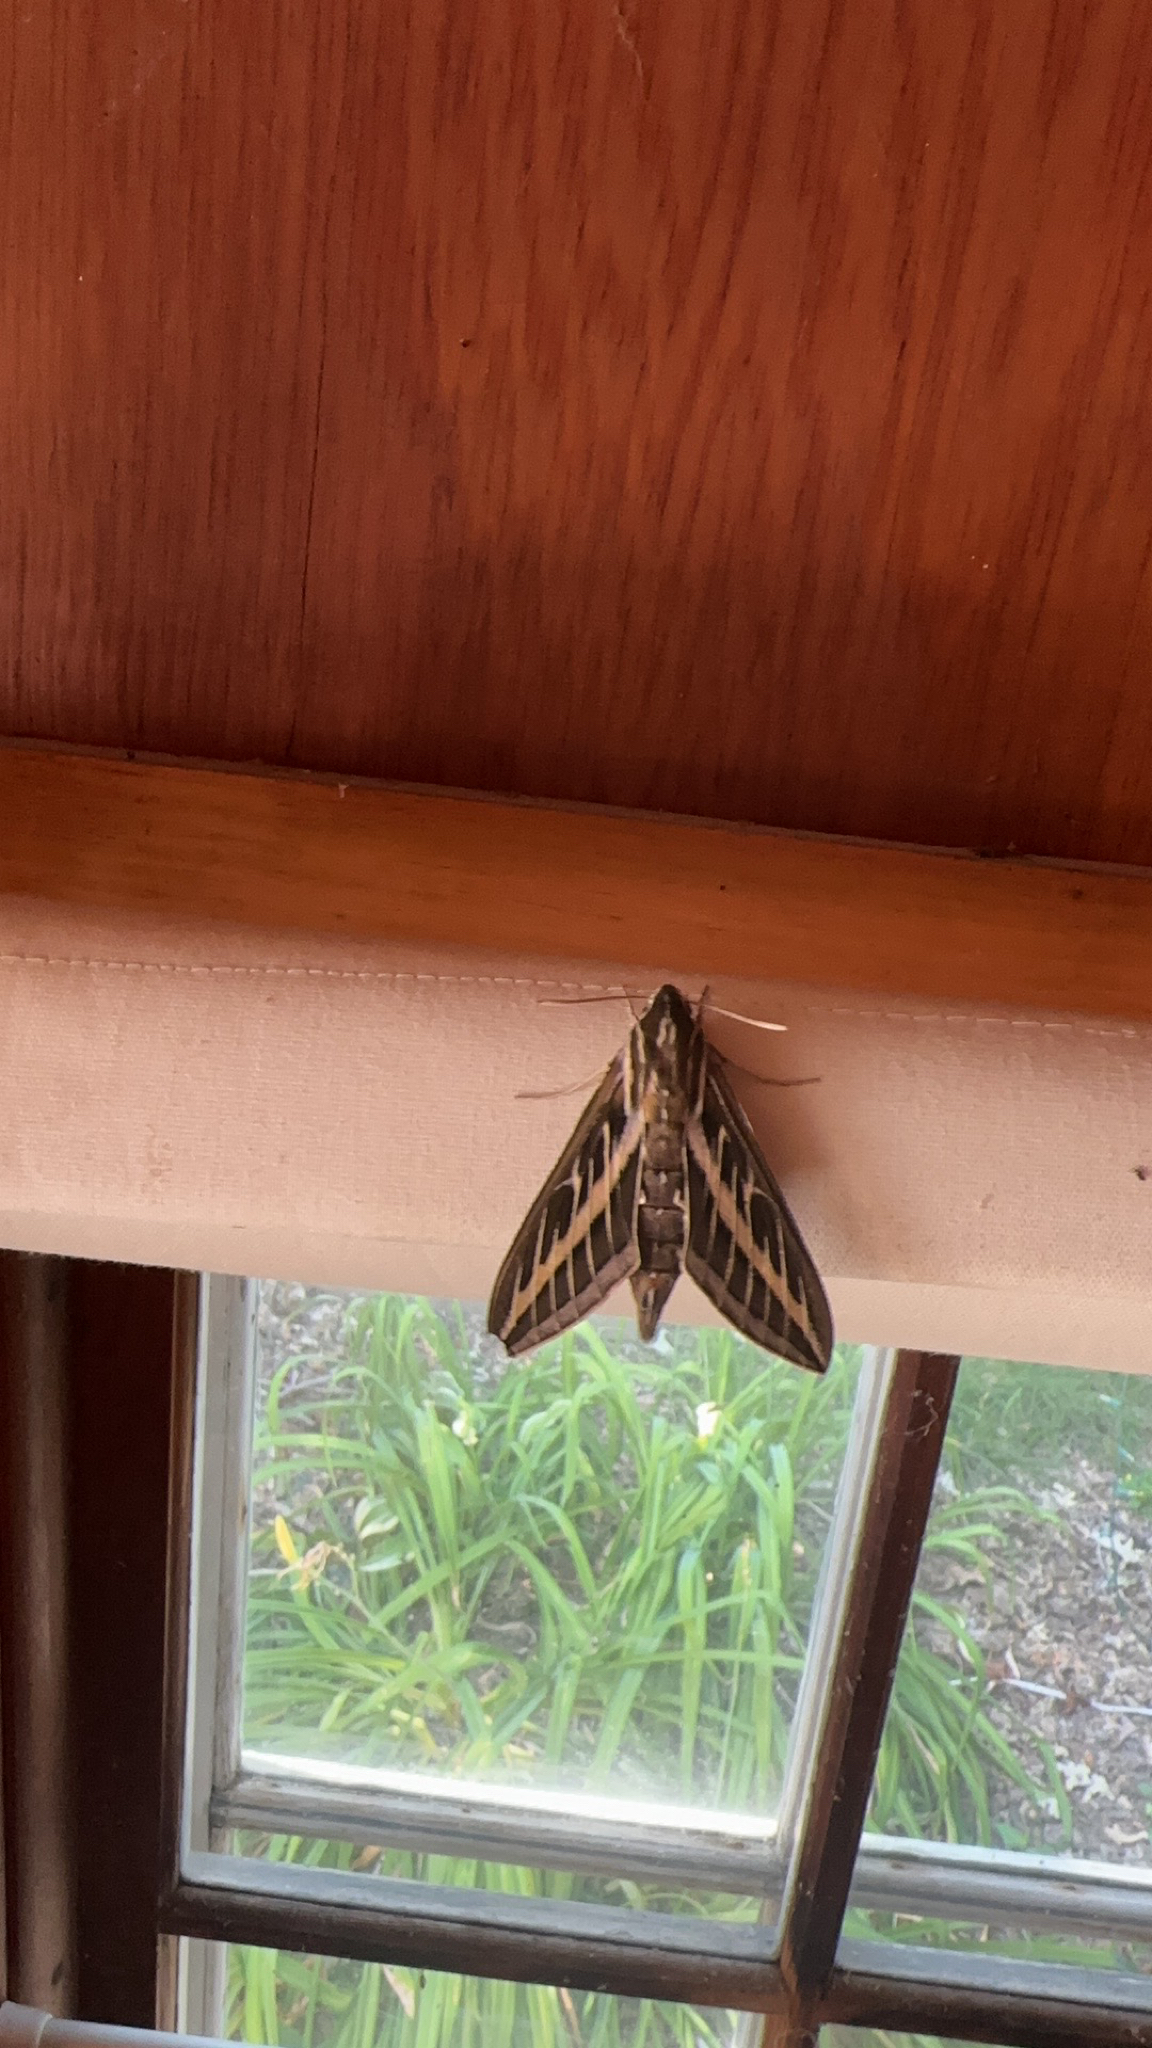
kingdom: Animalia
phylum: Arthropoda
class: Insecta
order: Lepidoptera
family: Sphingidae
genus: Hyles
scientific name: Hyles lineata
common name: White-lined sphinx
